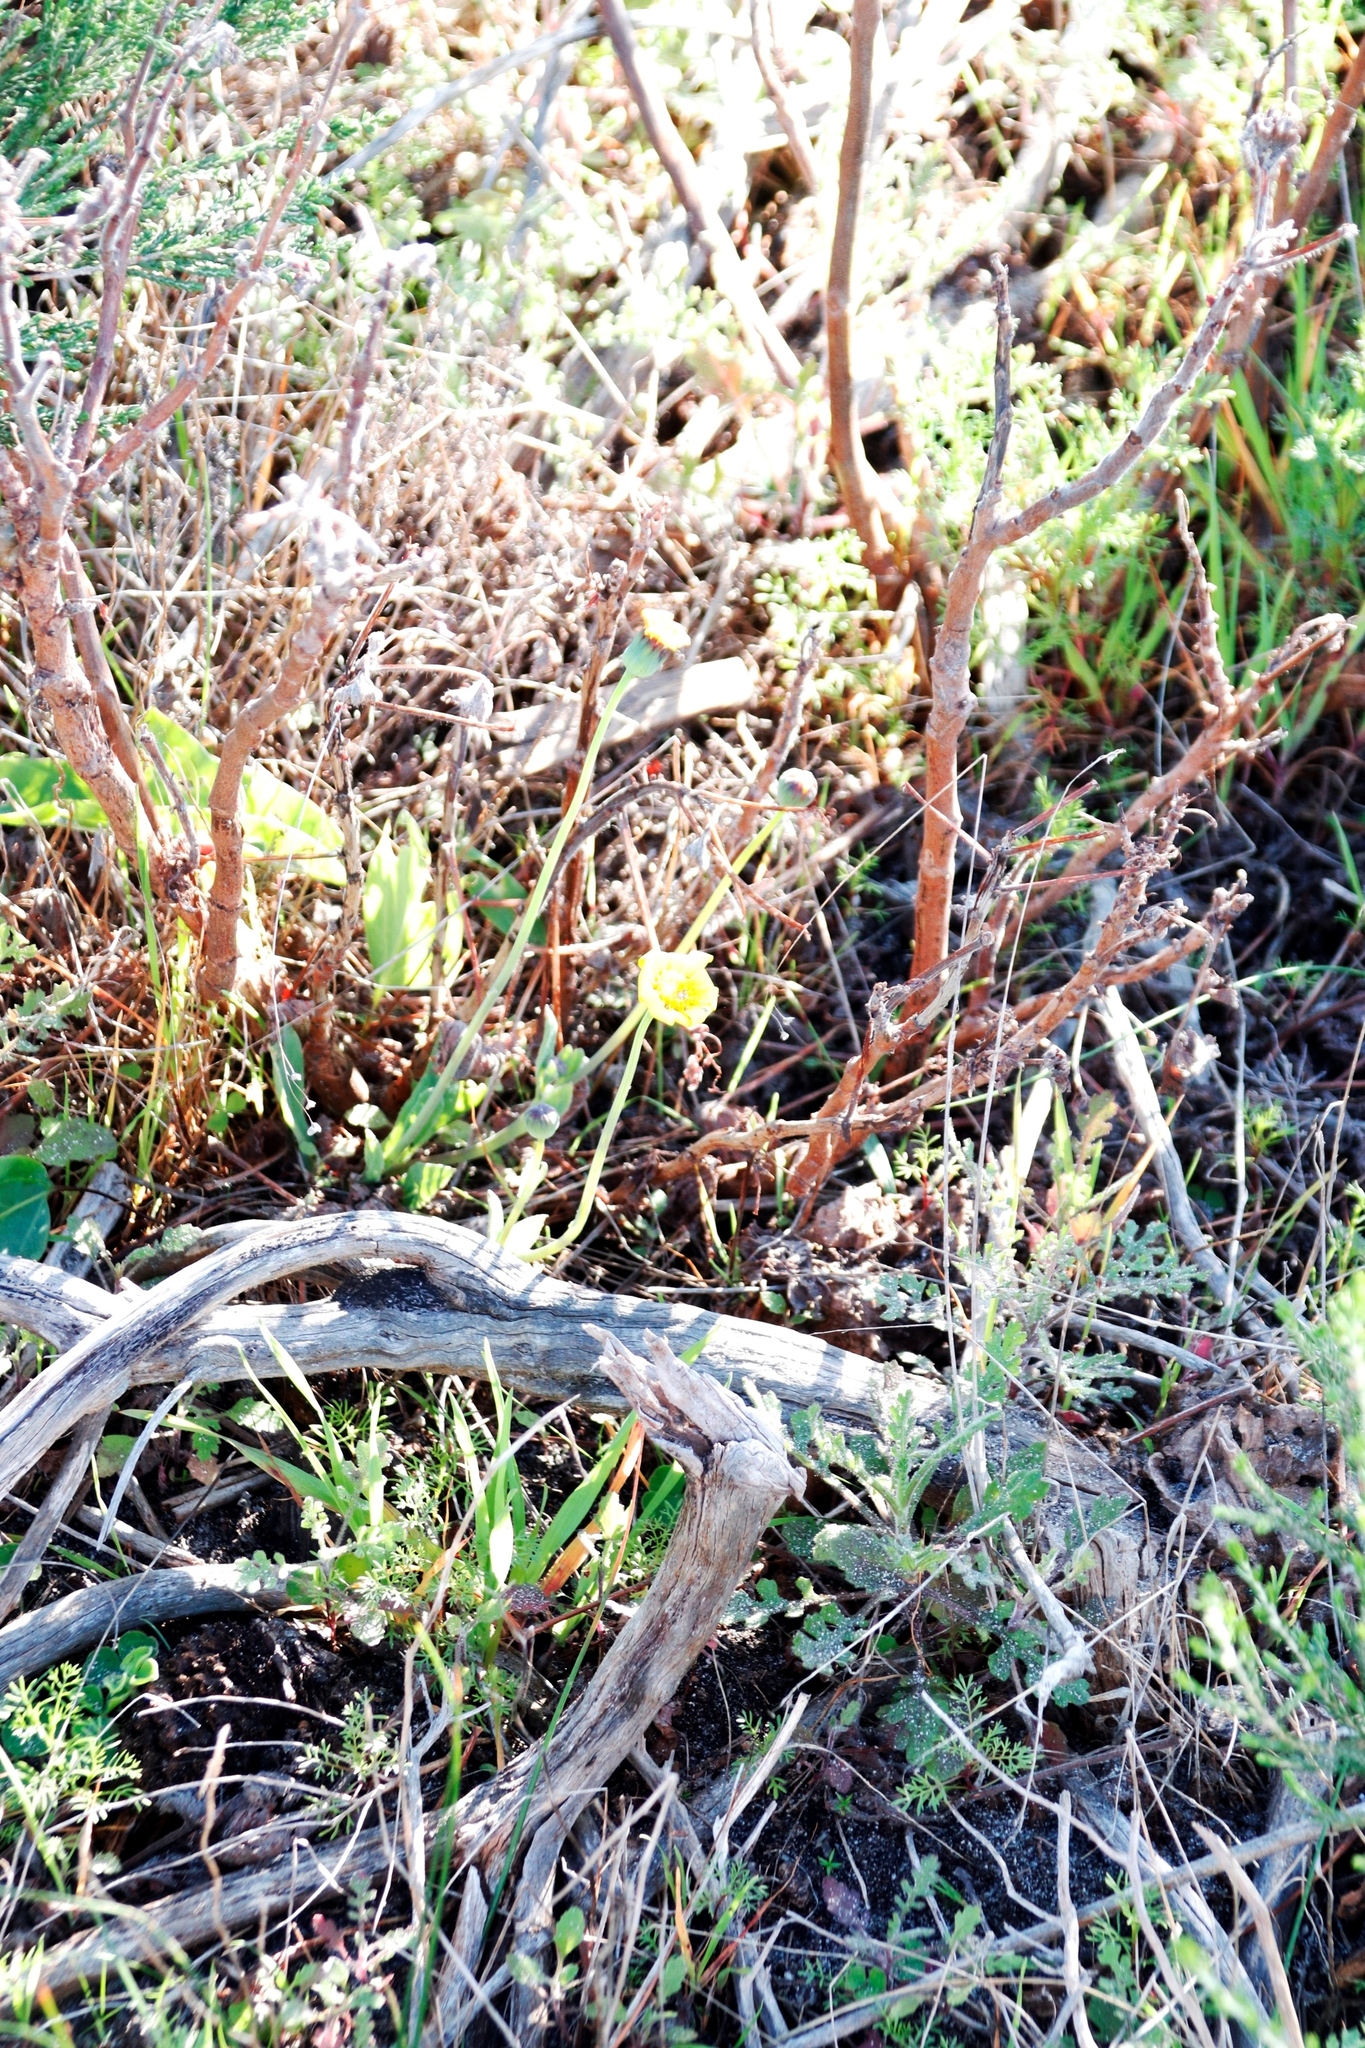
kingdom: Plantae
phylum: Tracheophyta
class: Magnoliopsida
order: Asterales
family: Asteraceae
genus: Othonna
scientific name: Othonna bulbosa
